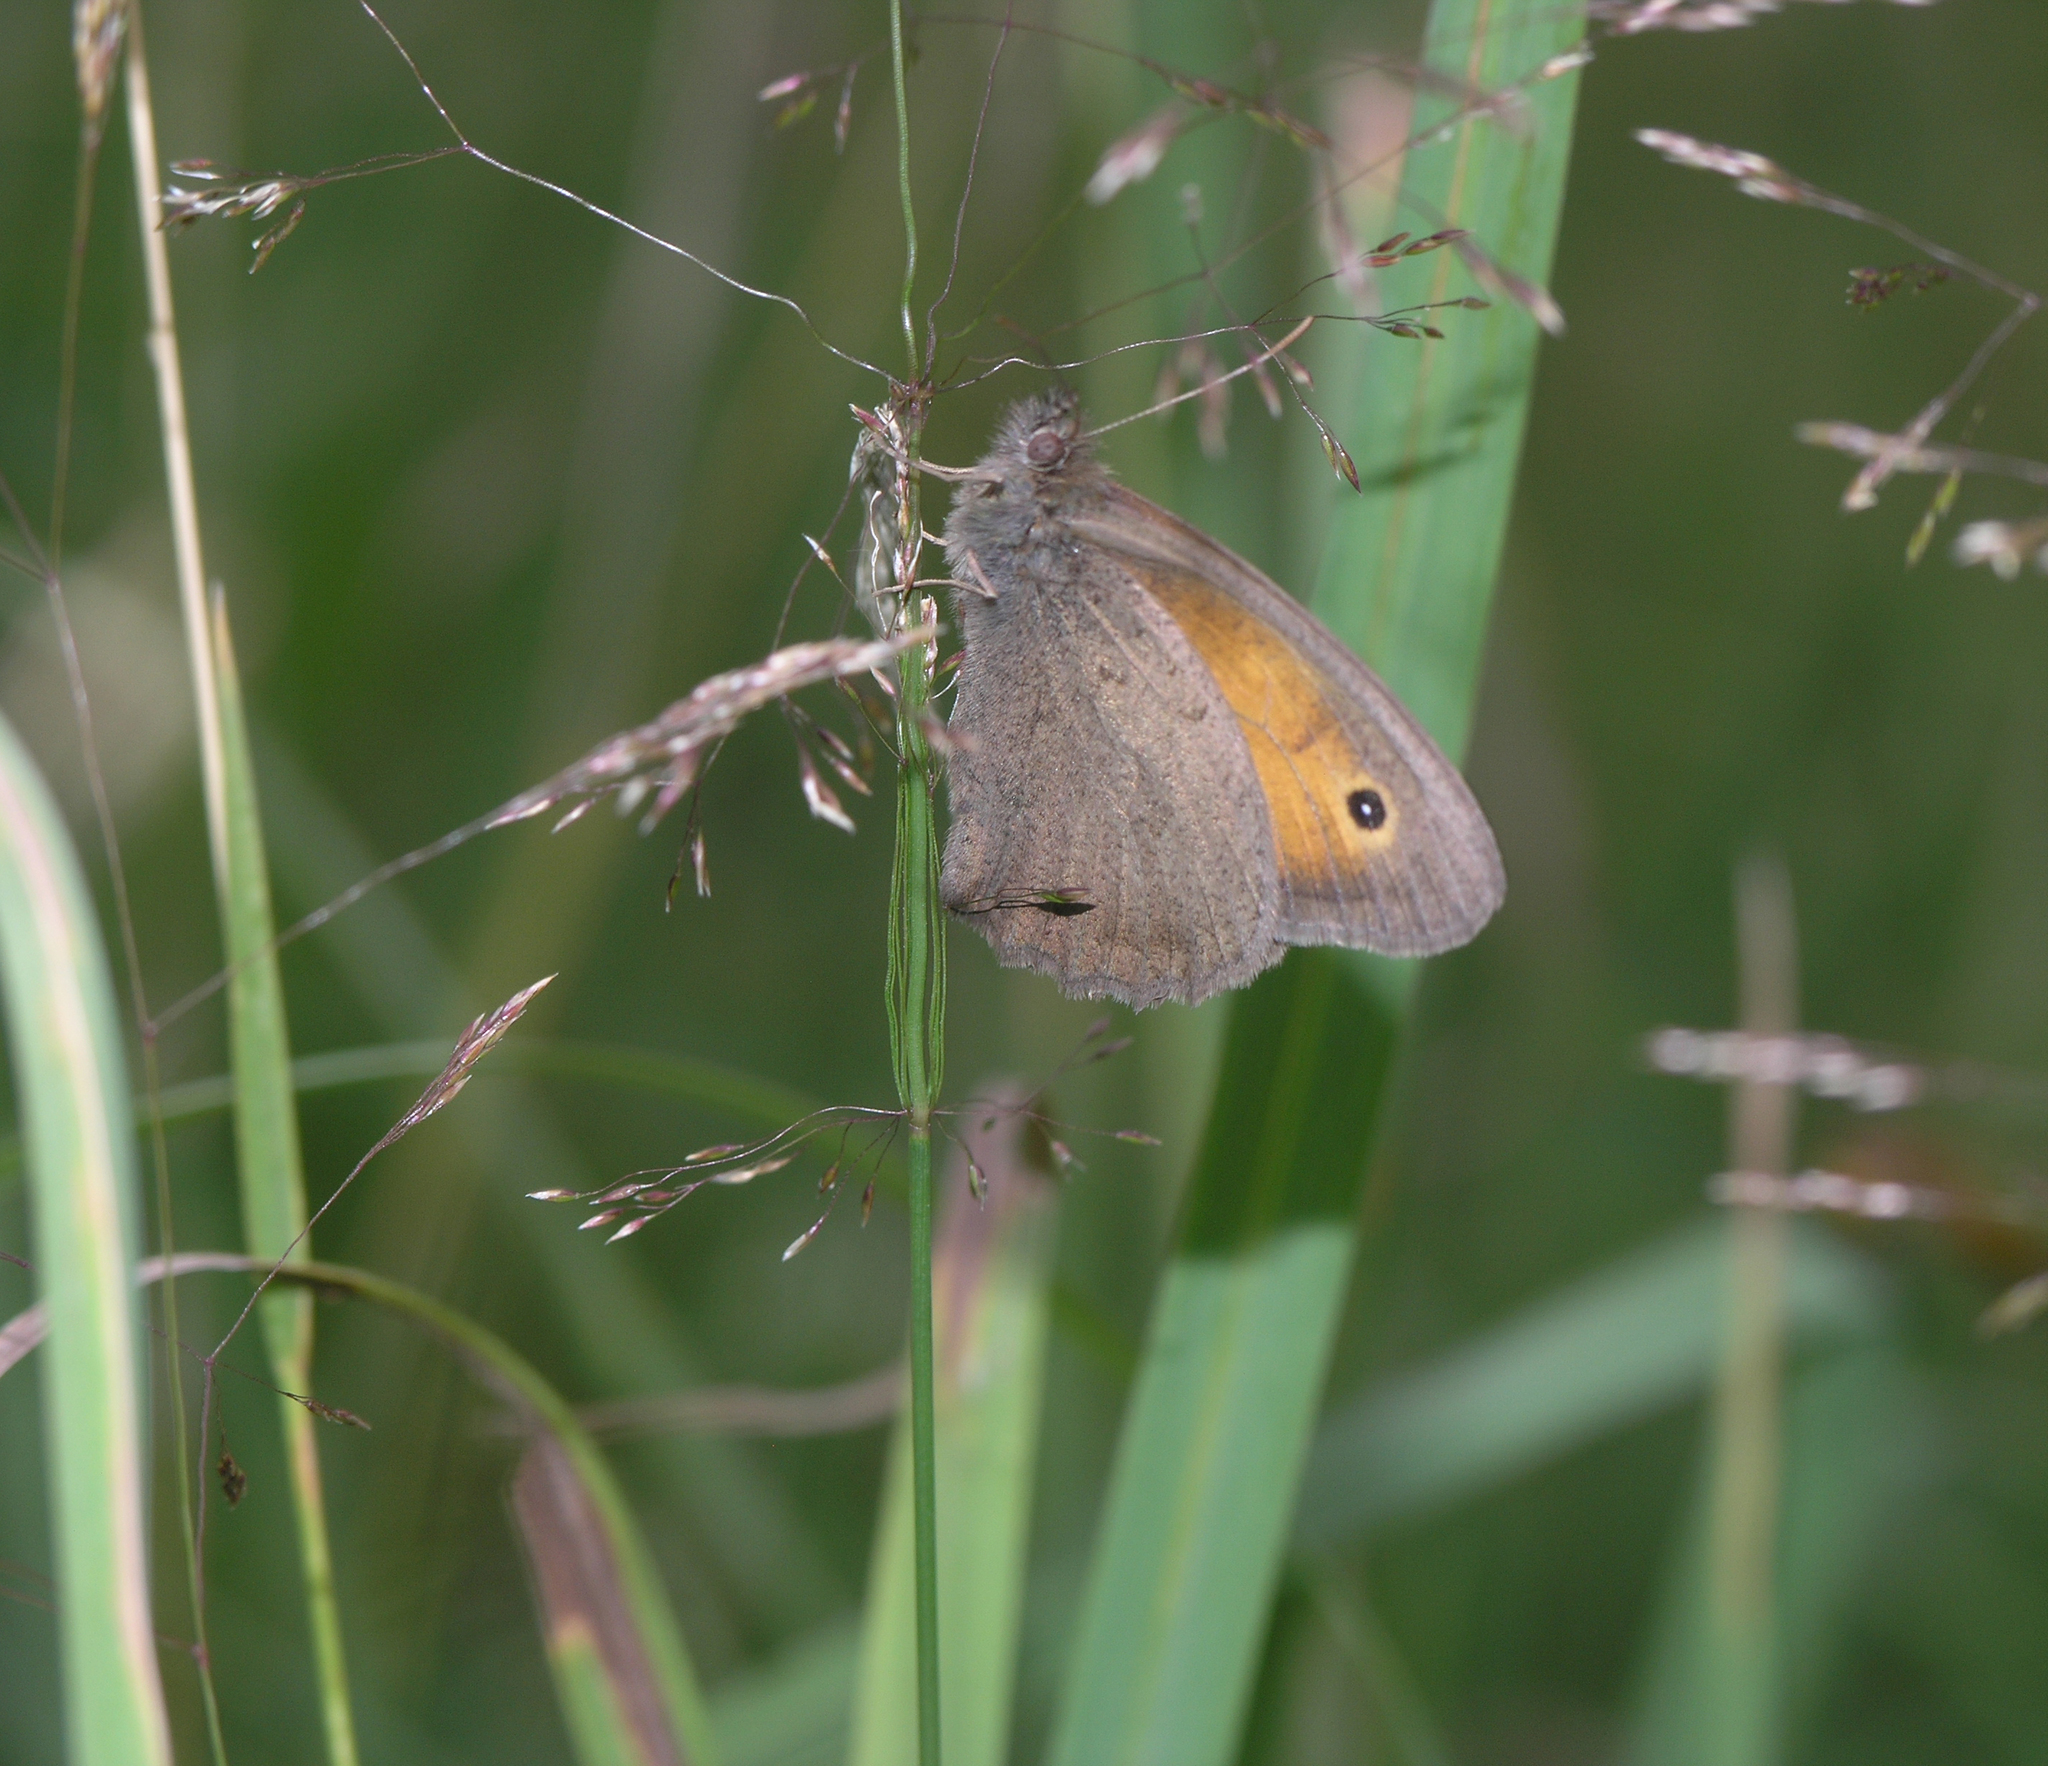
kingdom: Animalia
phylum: Arthropoda
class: Insecta
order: Lepidoptera
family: Nymphalidae
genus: Hyponephele
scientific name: Hyponephele lycaon
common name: Dusky meadow brown
